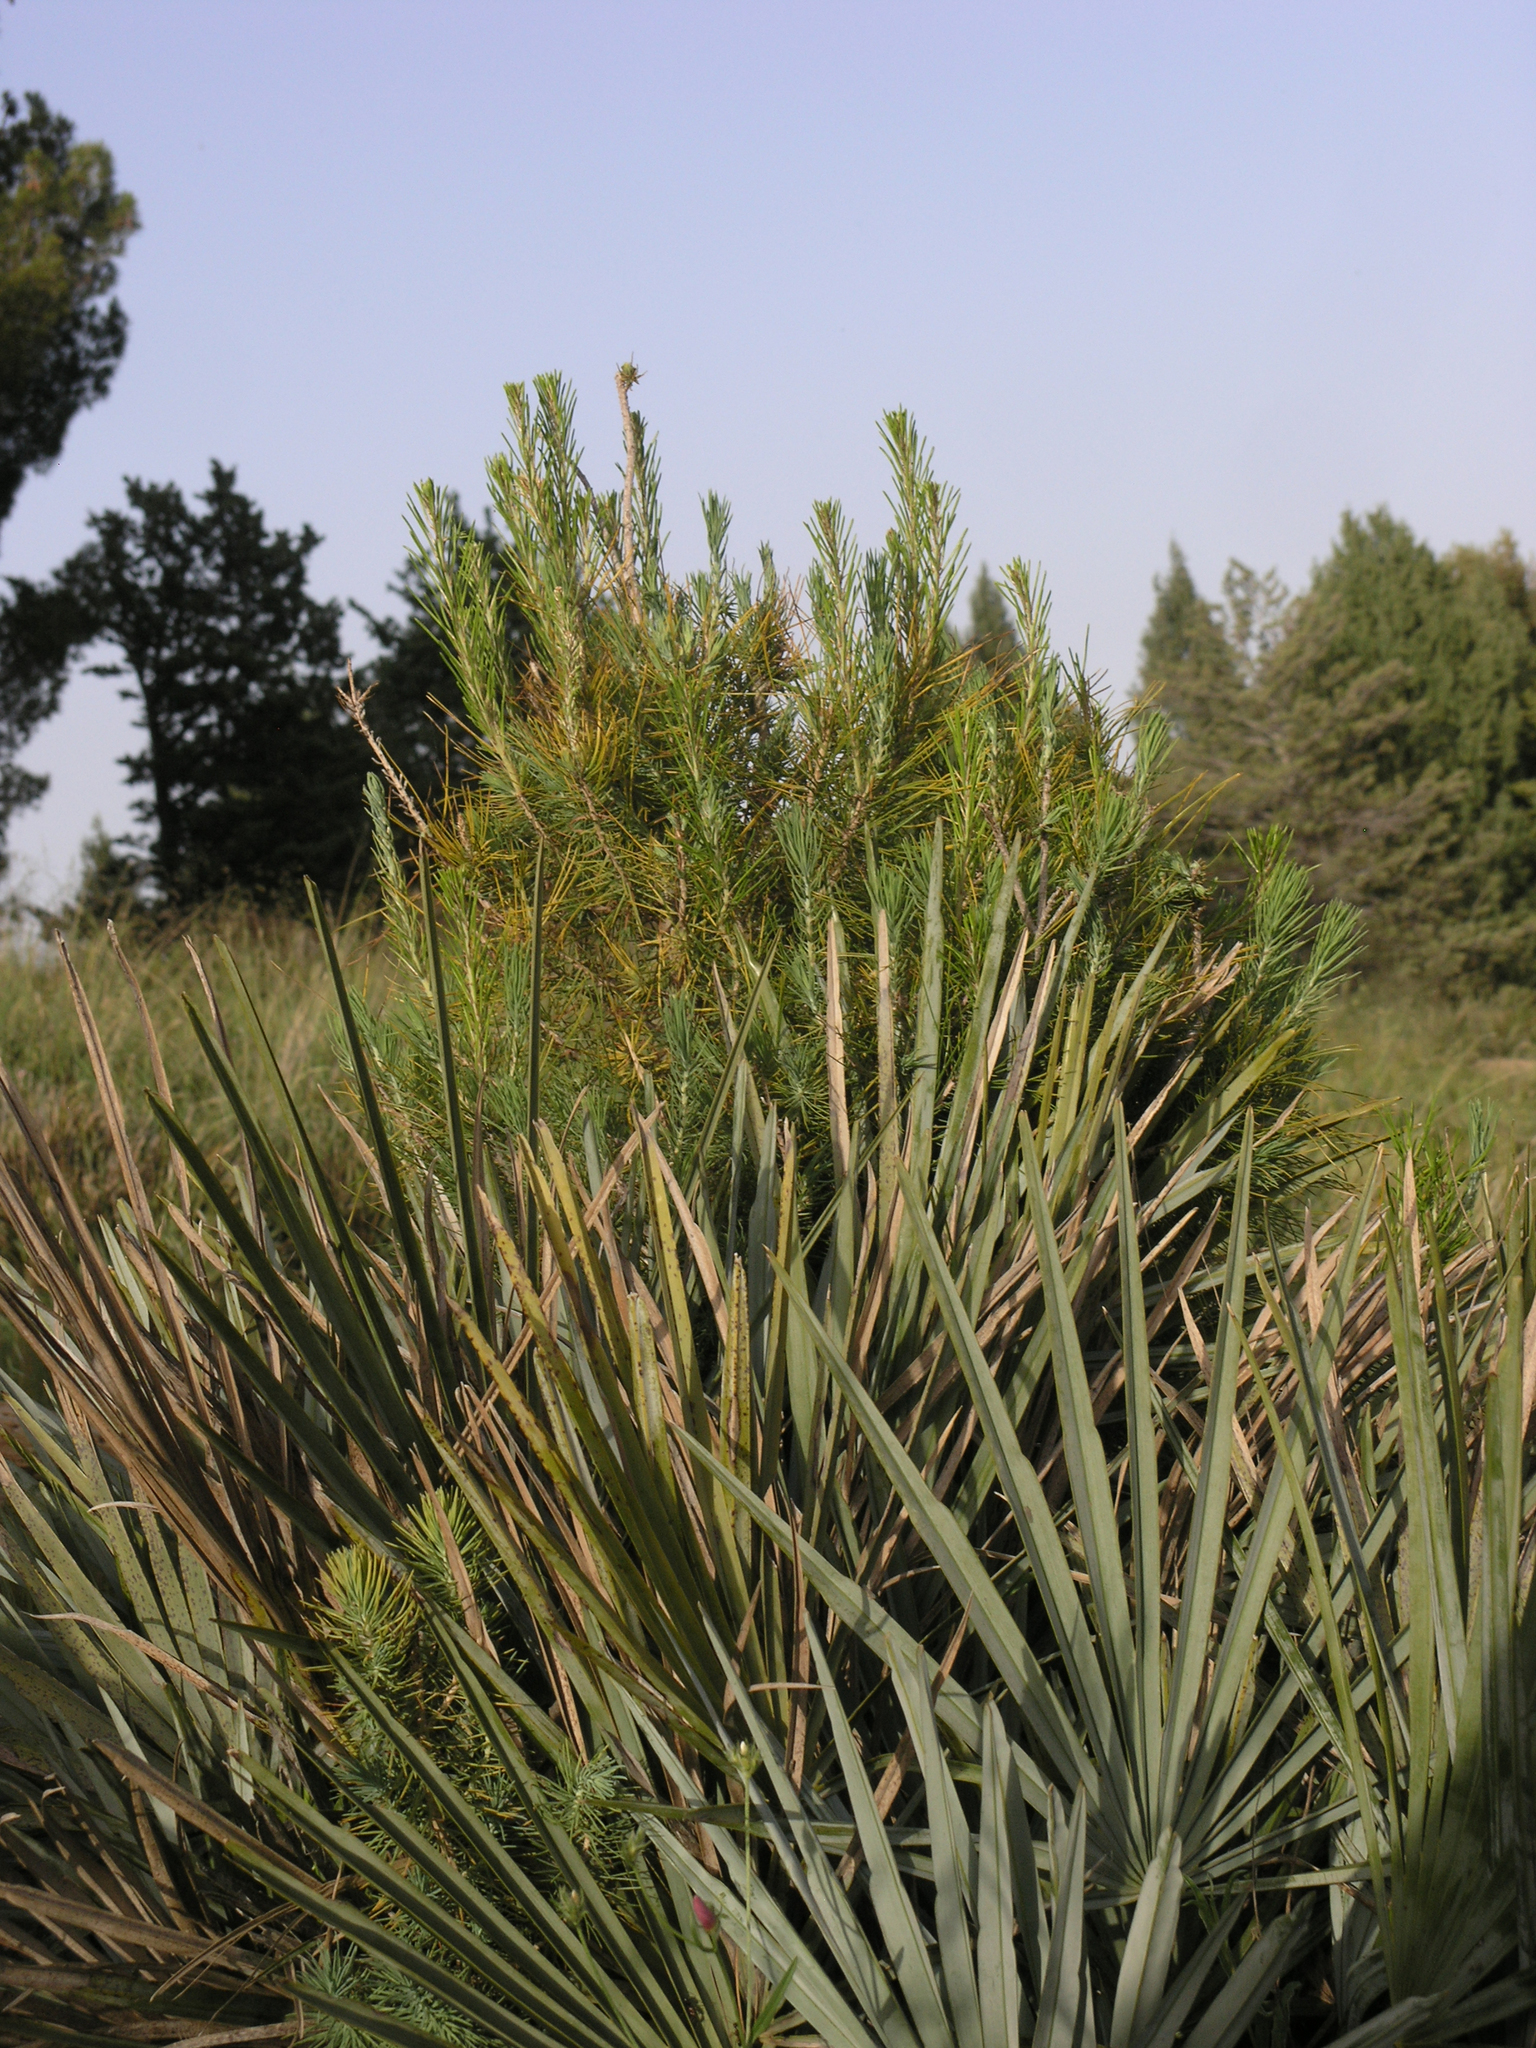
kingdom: Plantae
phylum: Tracheophyta
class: Pinopsida
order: Pinales
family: Pinaceae
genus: Pinus
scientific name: Pinus halepensis
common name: Aleppo pine
